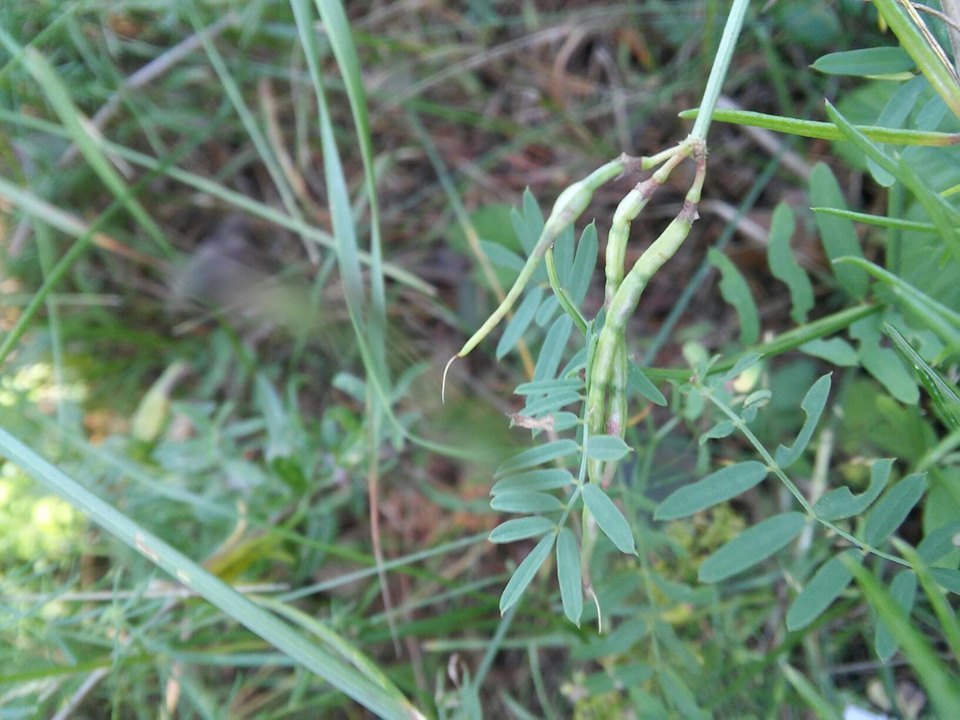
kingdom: Plantae
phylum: Tracheophyta
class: Magnoliopsida
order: Fabales
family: Fabaceae
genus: Coronilla
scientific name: Coronilla varia
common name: Crownvetch
